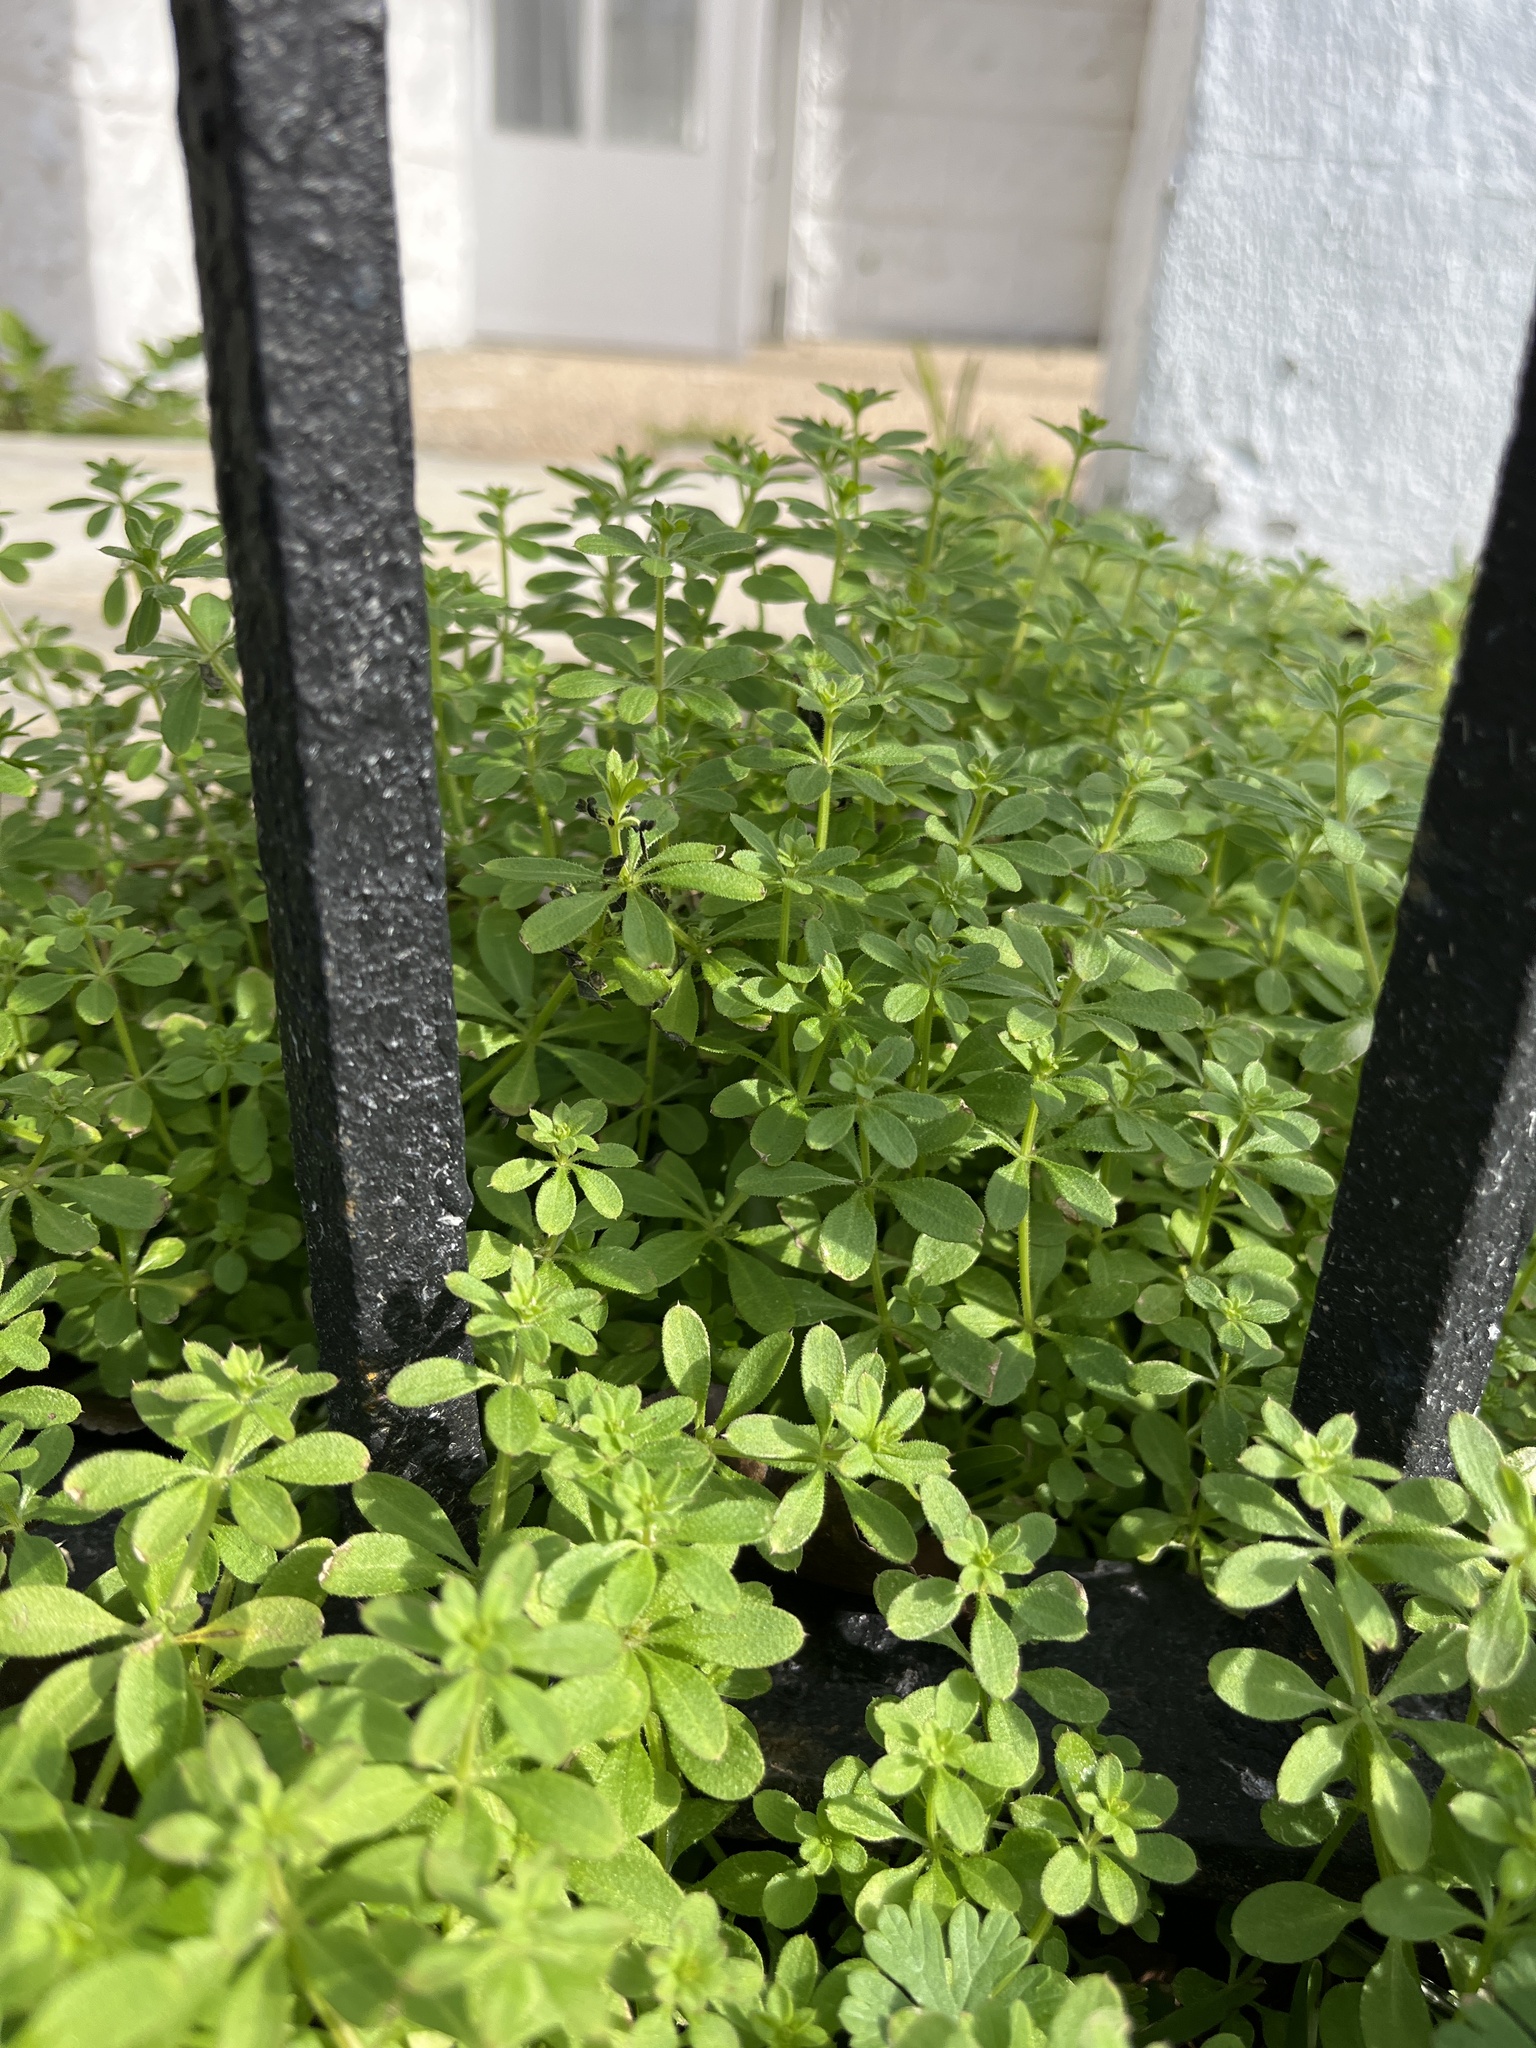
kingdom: Plantae
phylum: Tracheophyta
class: Magnoliopsida
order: Gentianales
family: Rubiaceae
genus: Galium
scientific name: Galium aparine
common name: Cleavers
